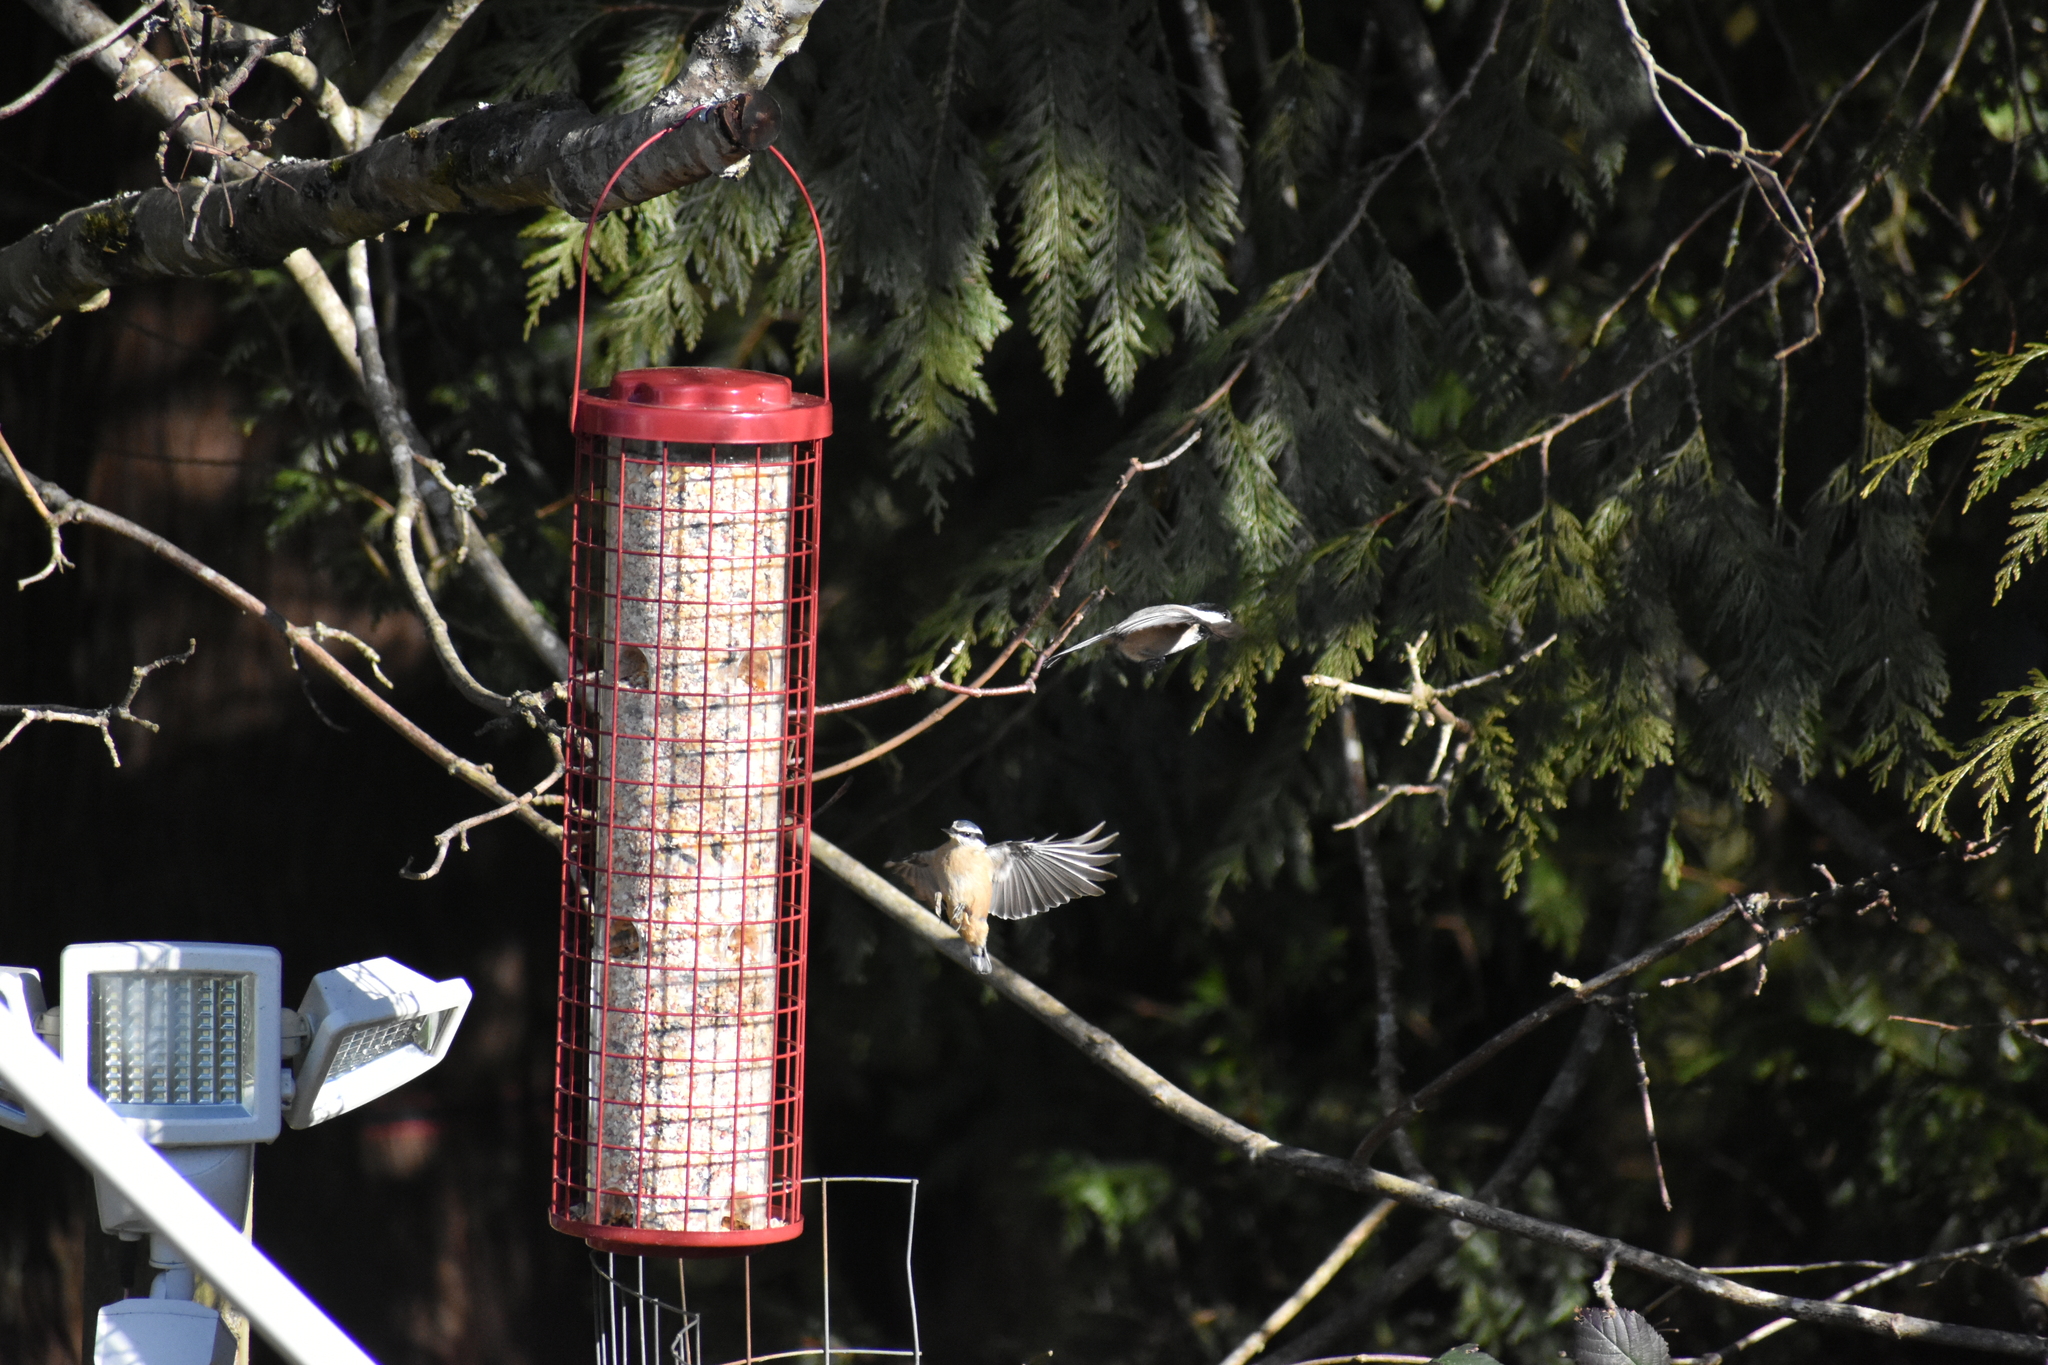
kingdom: Animalia
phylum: Chordata
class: Aves
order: Passeriformes
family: Sittidae
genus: Sitta
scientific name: Sitta canadensis
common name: Red-breasted nuthatch
